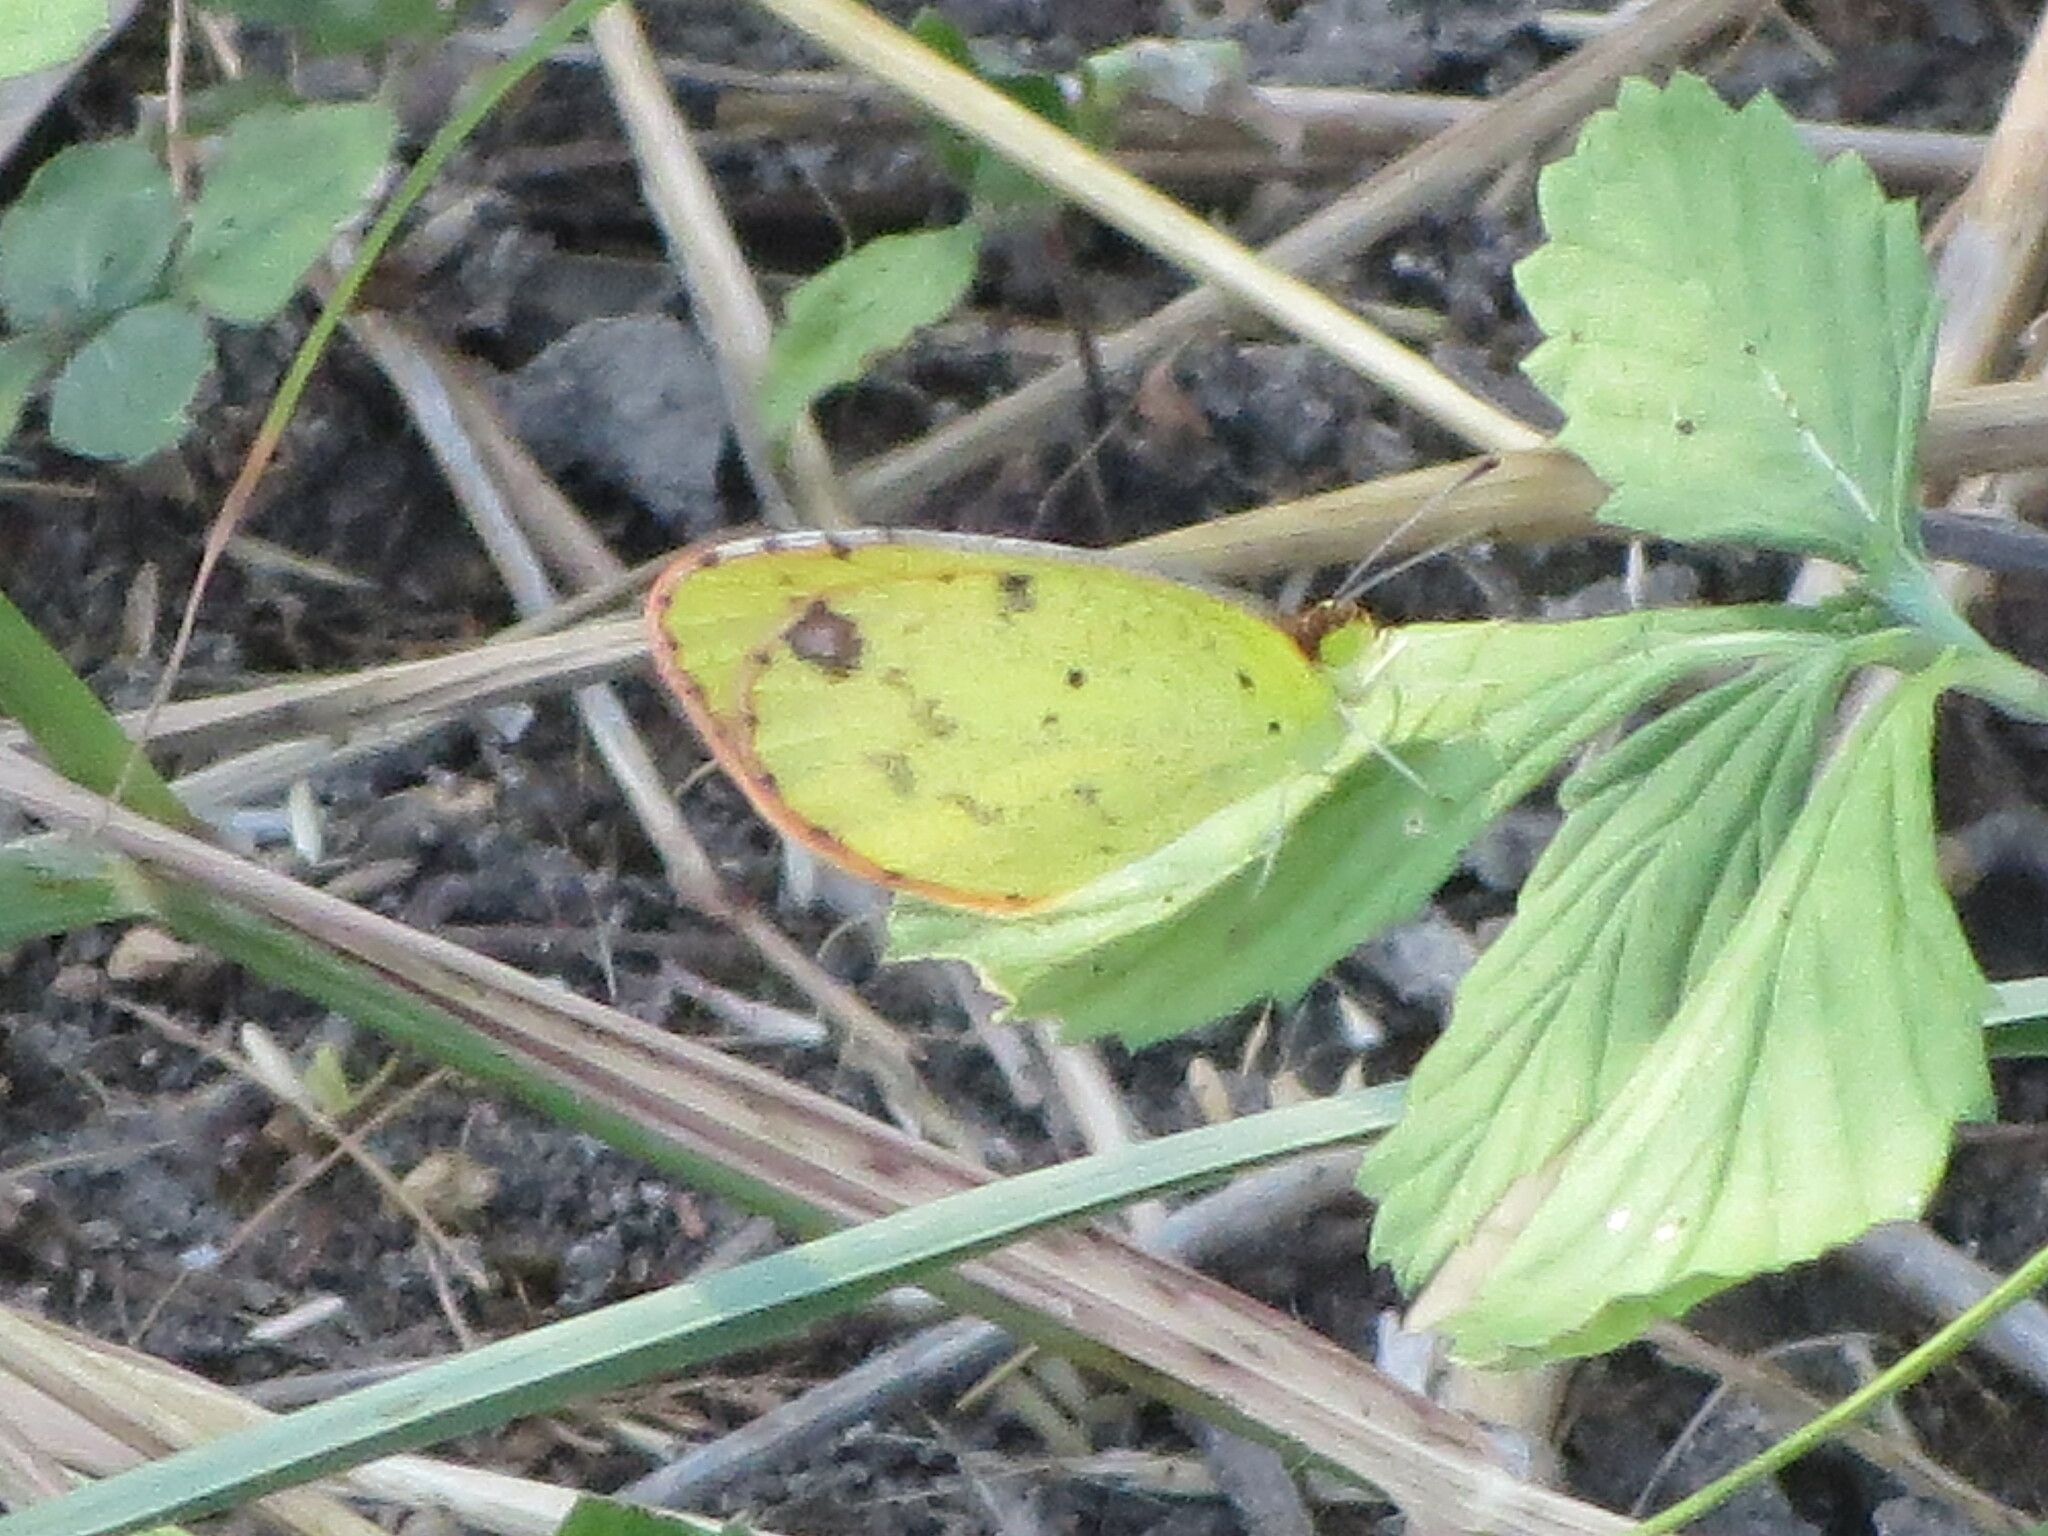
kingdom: Animalia
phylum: Arthropoda
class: Insecta
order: Lepidoptera
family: Pieridae
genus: Pyrisitia
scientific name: Pyrisitia lisa
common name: Little yellow
